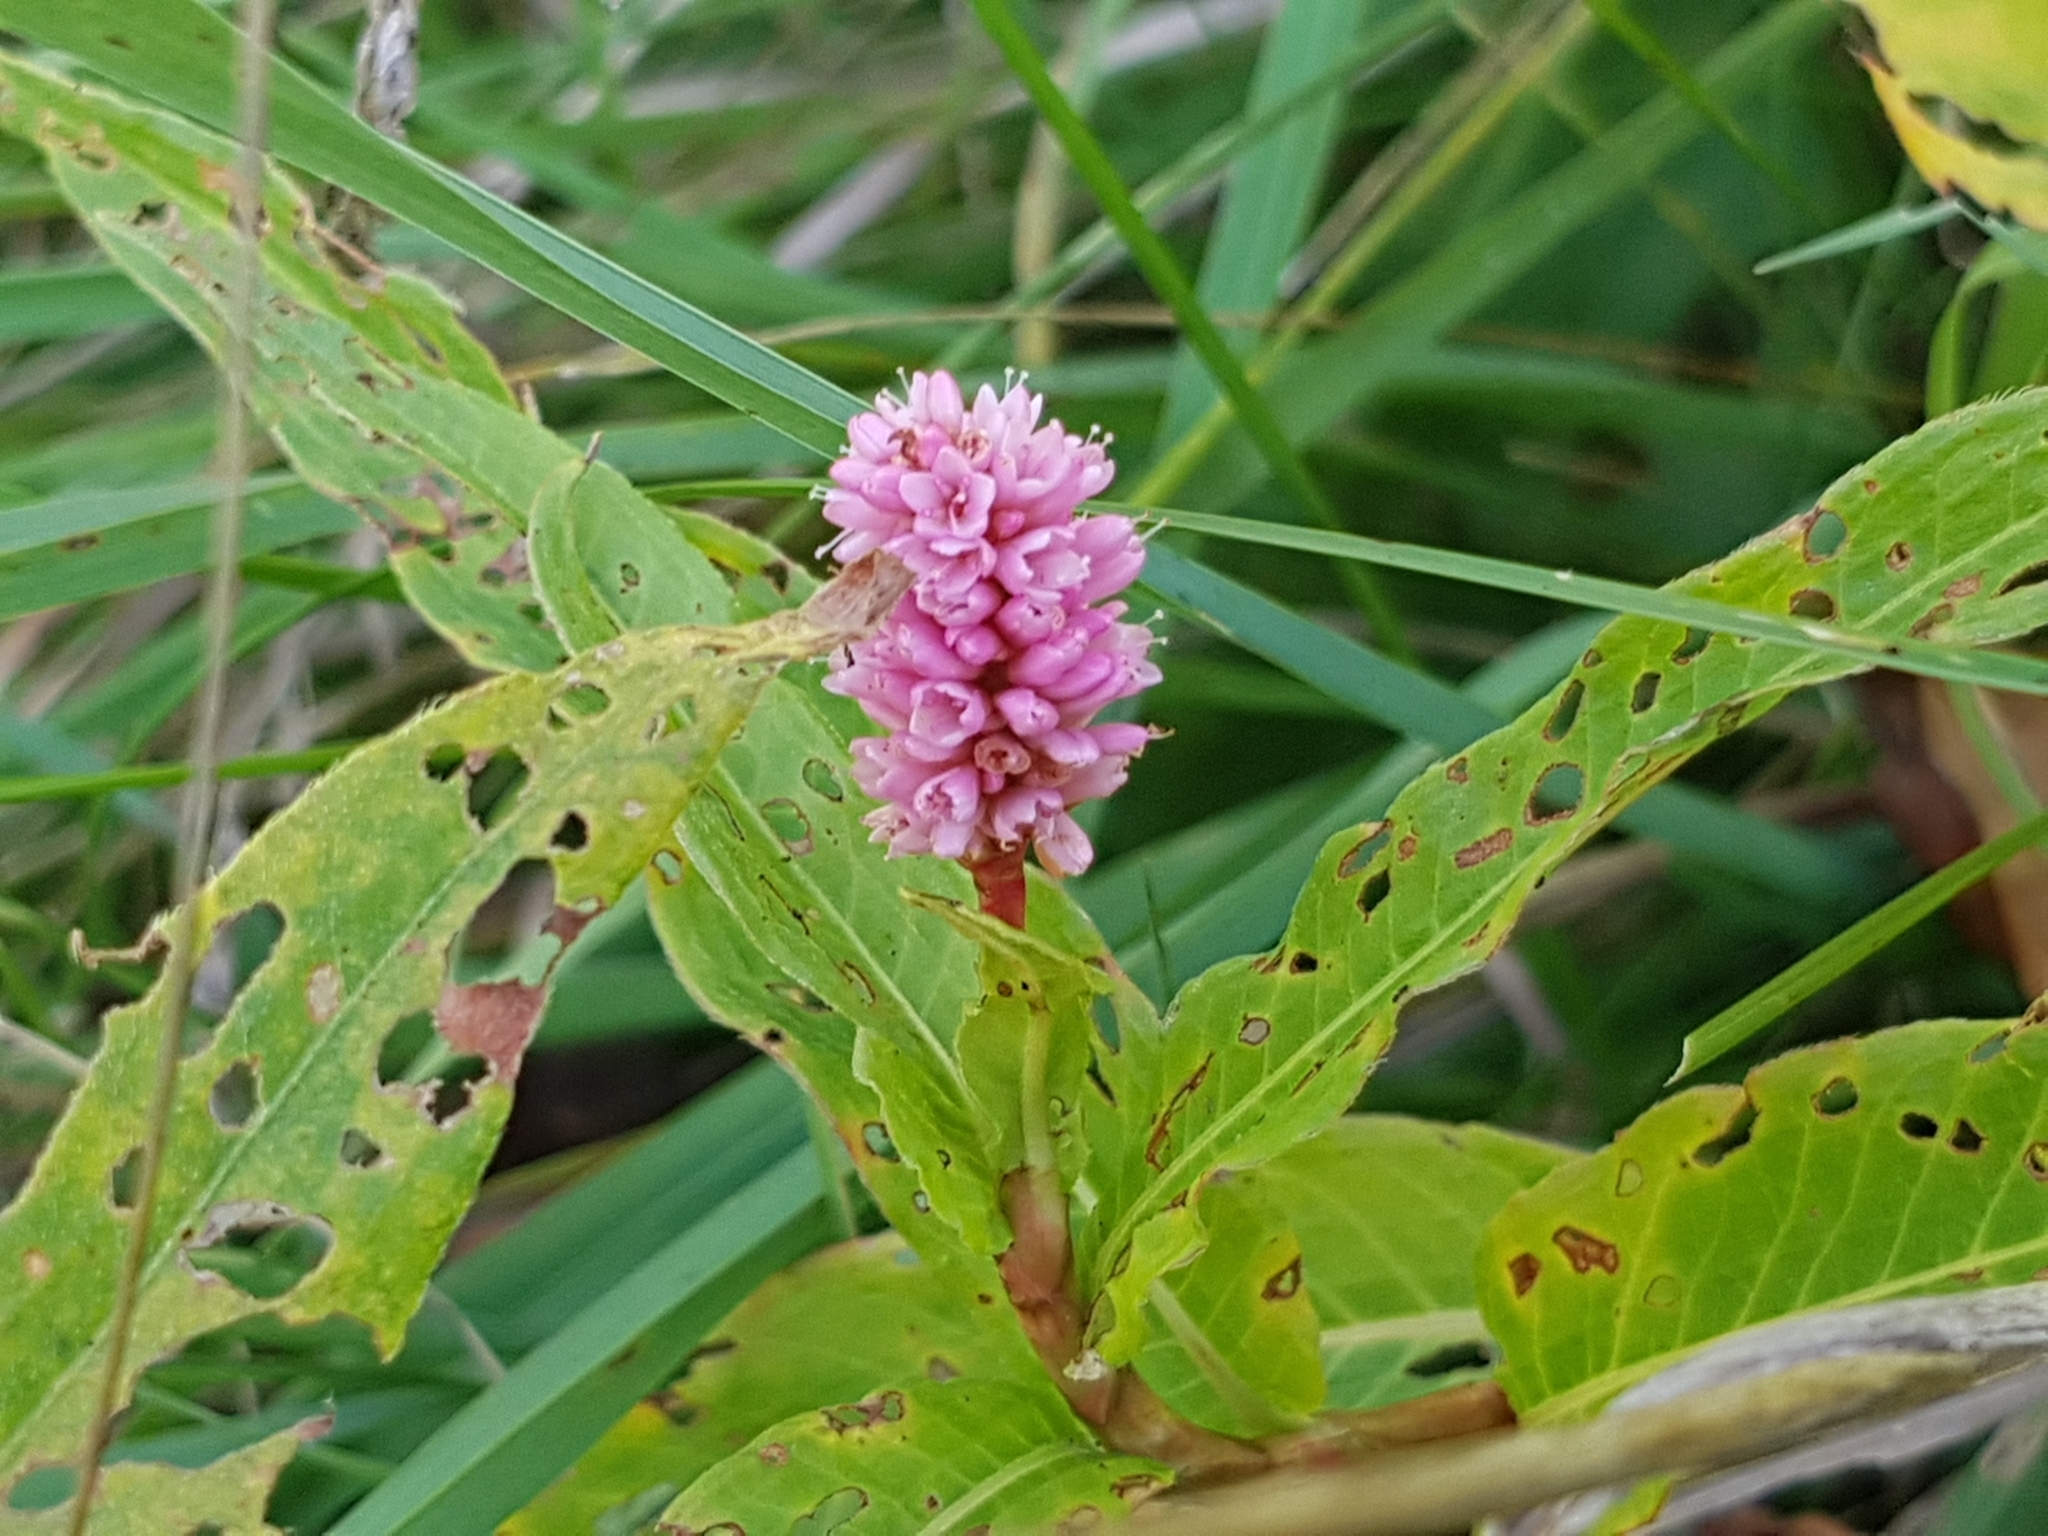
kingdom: Plantae
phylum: Tracheophyta
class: Magnoliopsida
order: Caryophyllales
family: Polygonaceae
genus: Persicaria
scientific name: Persicaria amphibia
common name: Amphibious bistort
